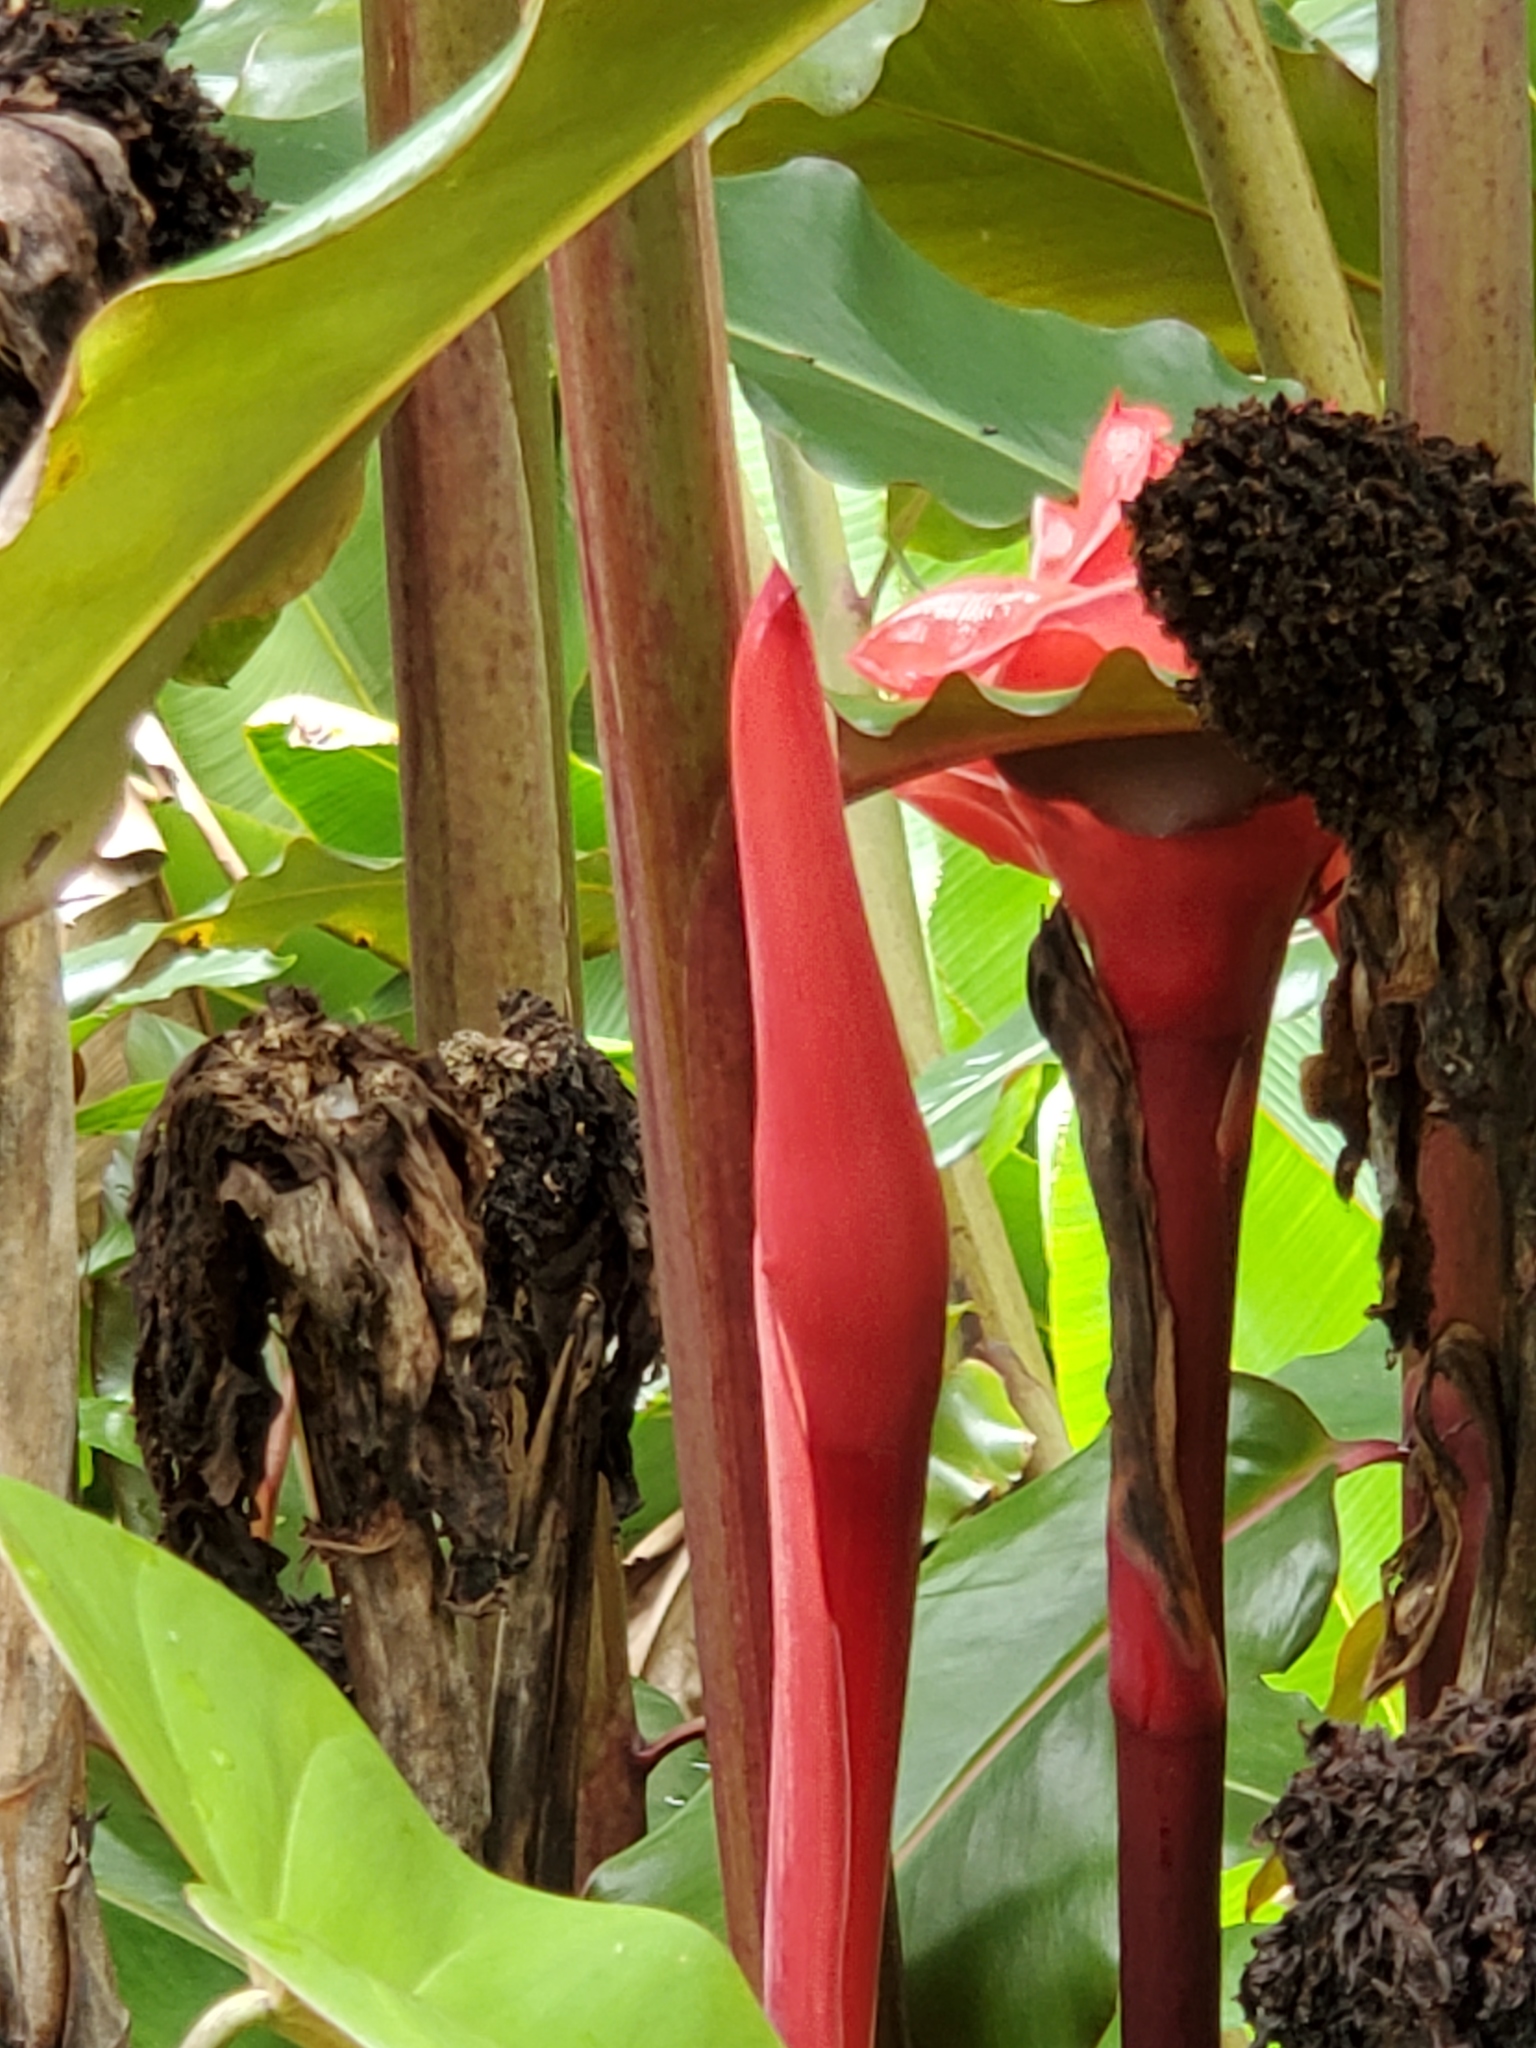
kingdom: Plantae
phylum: Tracheophyta
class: Liliopsida
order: Zingiberales
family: Zingiberaceae
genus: Etlingera
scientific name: Etlingera elatior
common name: Philippine waxflower
